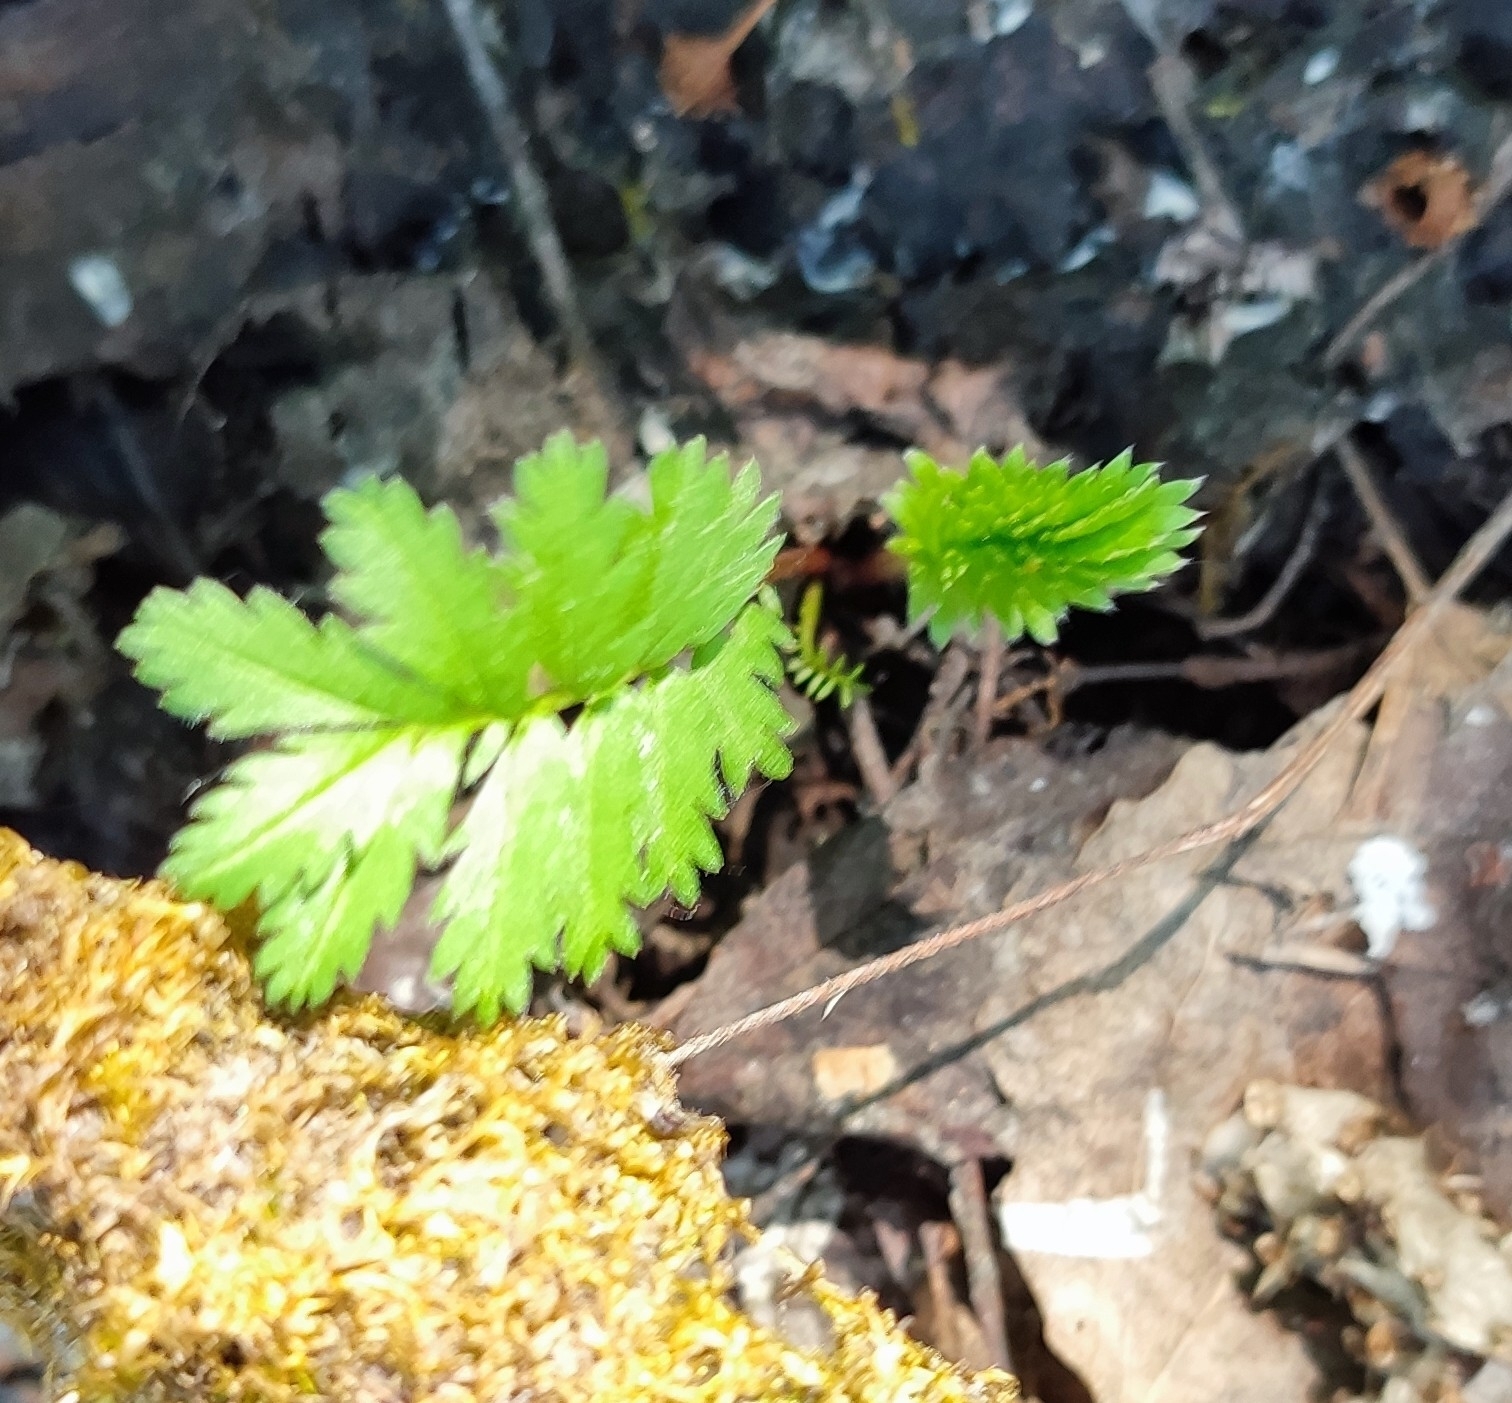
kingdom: Plantae
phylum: Tracheophyta
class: Magnoliopsida
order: Rosales
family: Rosaceae
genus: Argentina
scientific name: Argentina anserina
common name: Common silverweed
